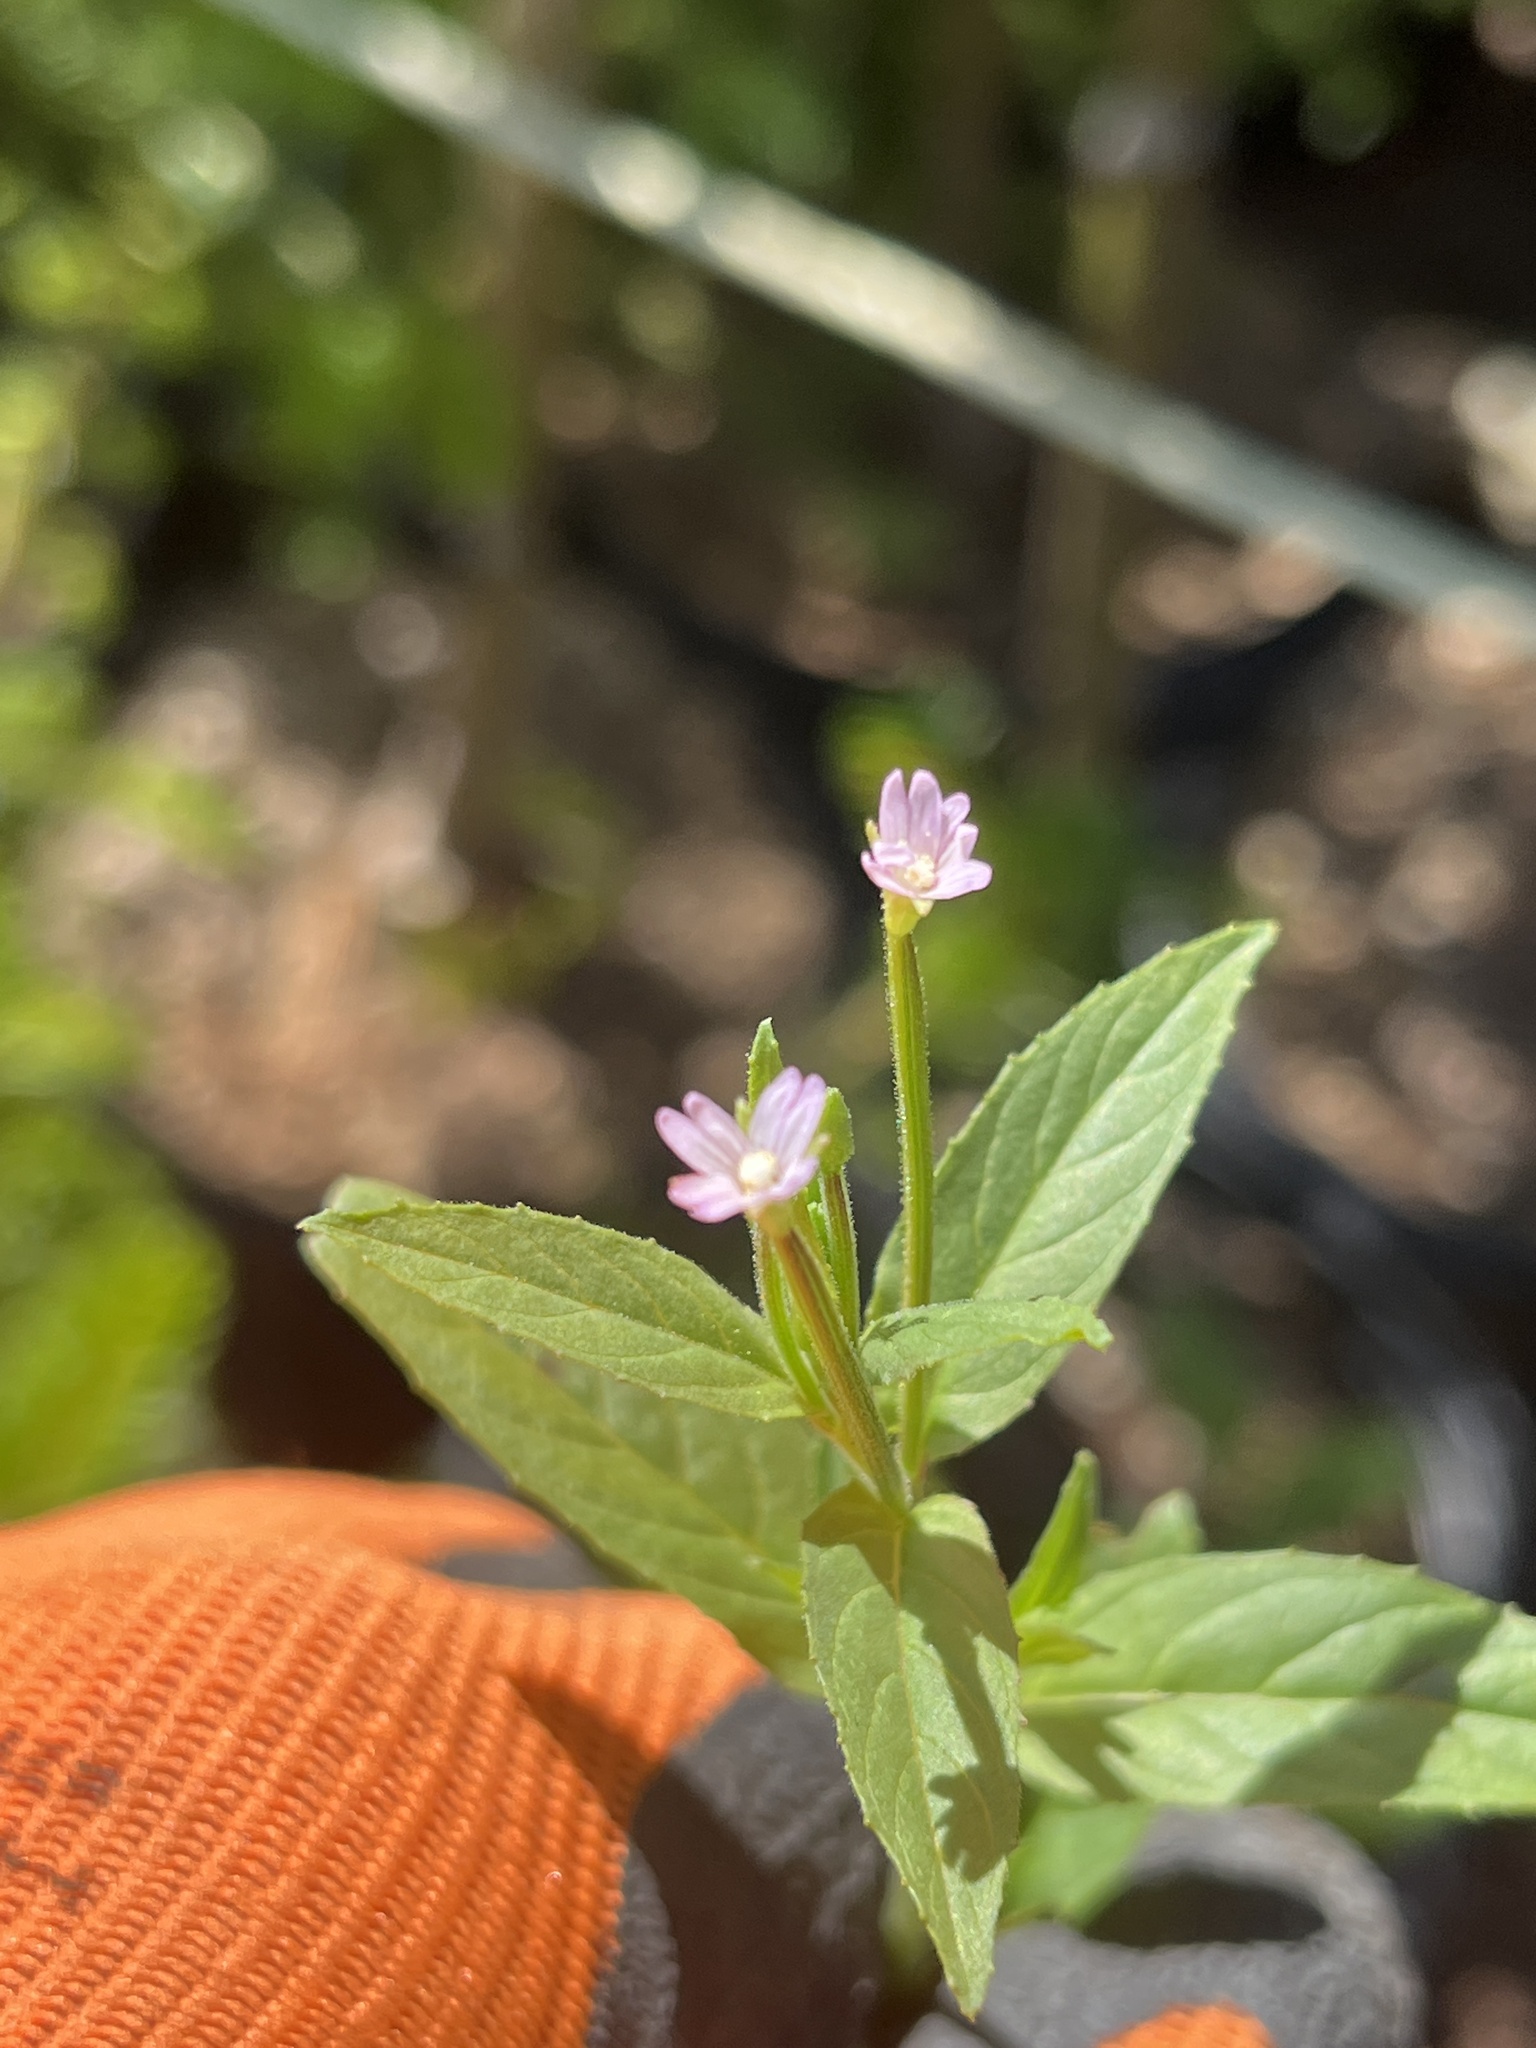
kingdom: Plantae
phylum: Tracheophyta
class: Magnoliopsida
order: Myrtales
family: Onagraceae
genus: Epilobium
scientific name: Epilobium ciliatum
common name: American willowherb
